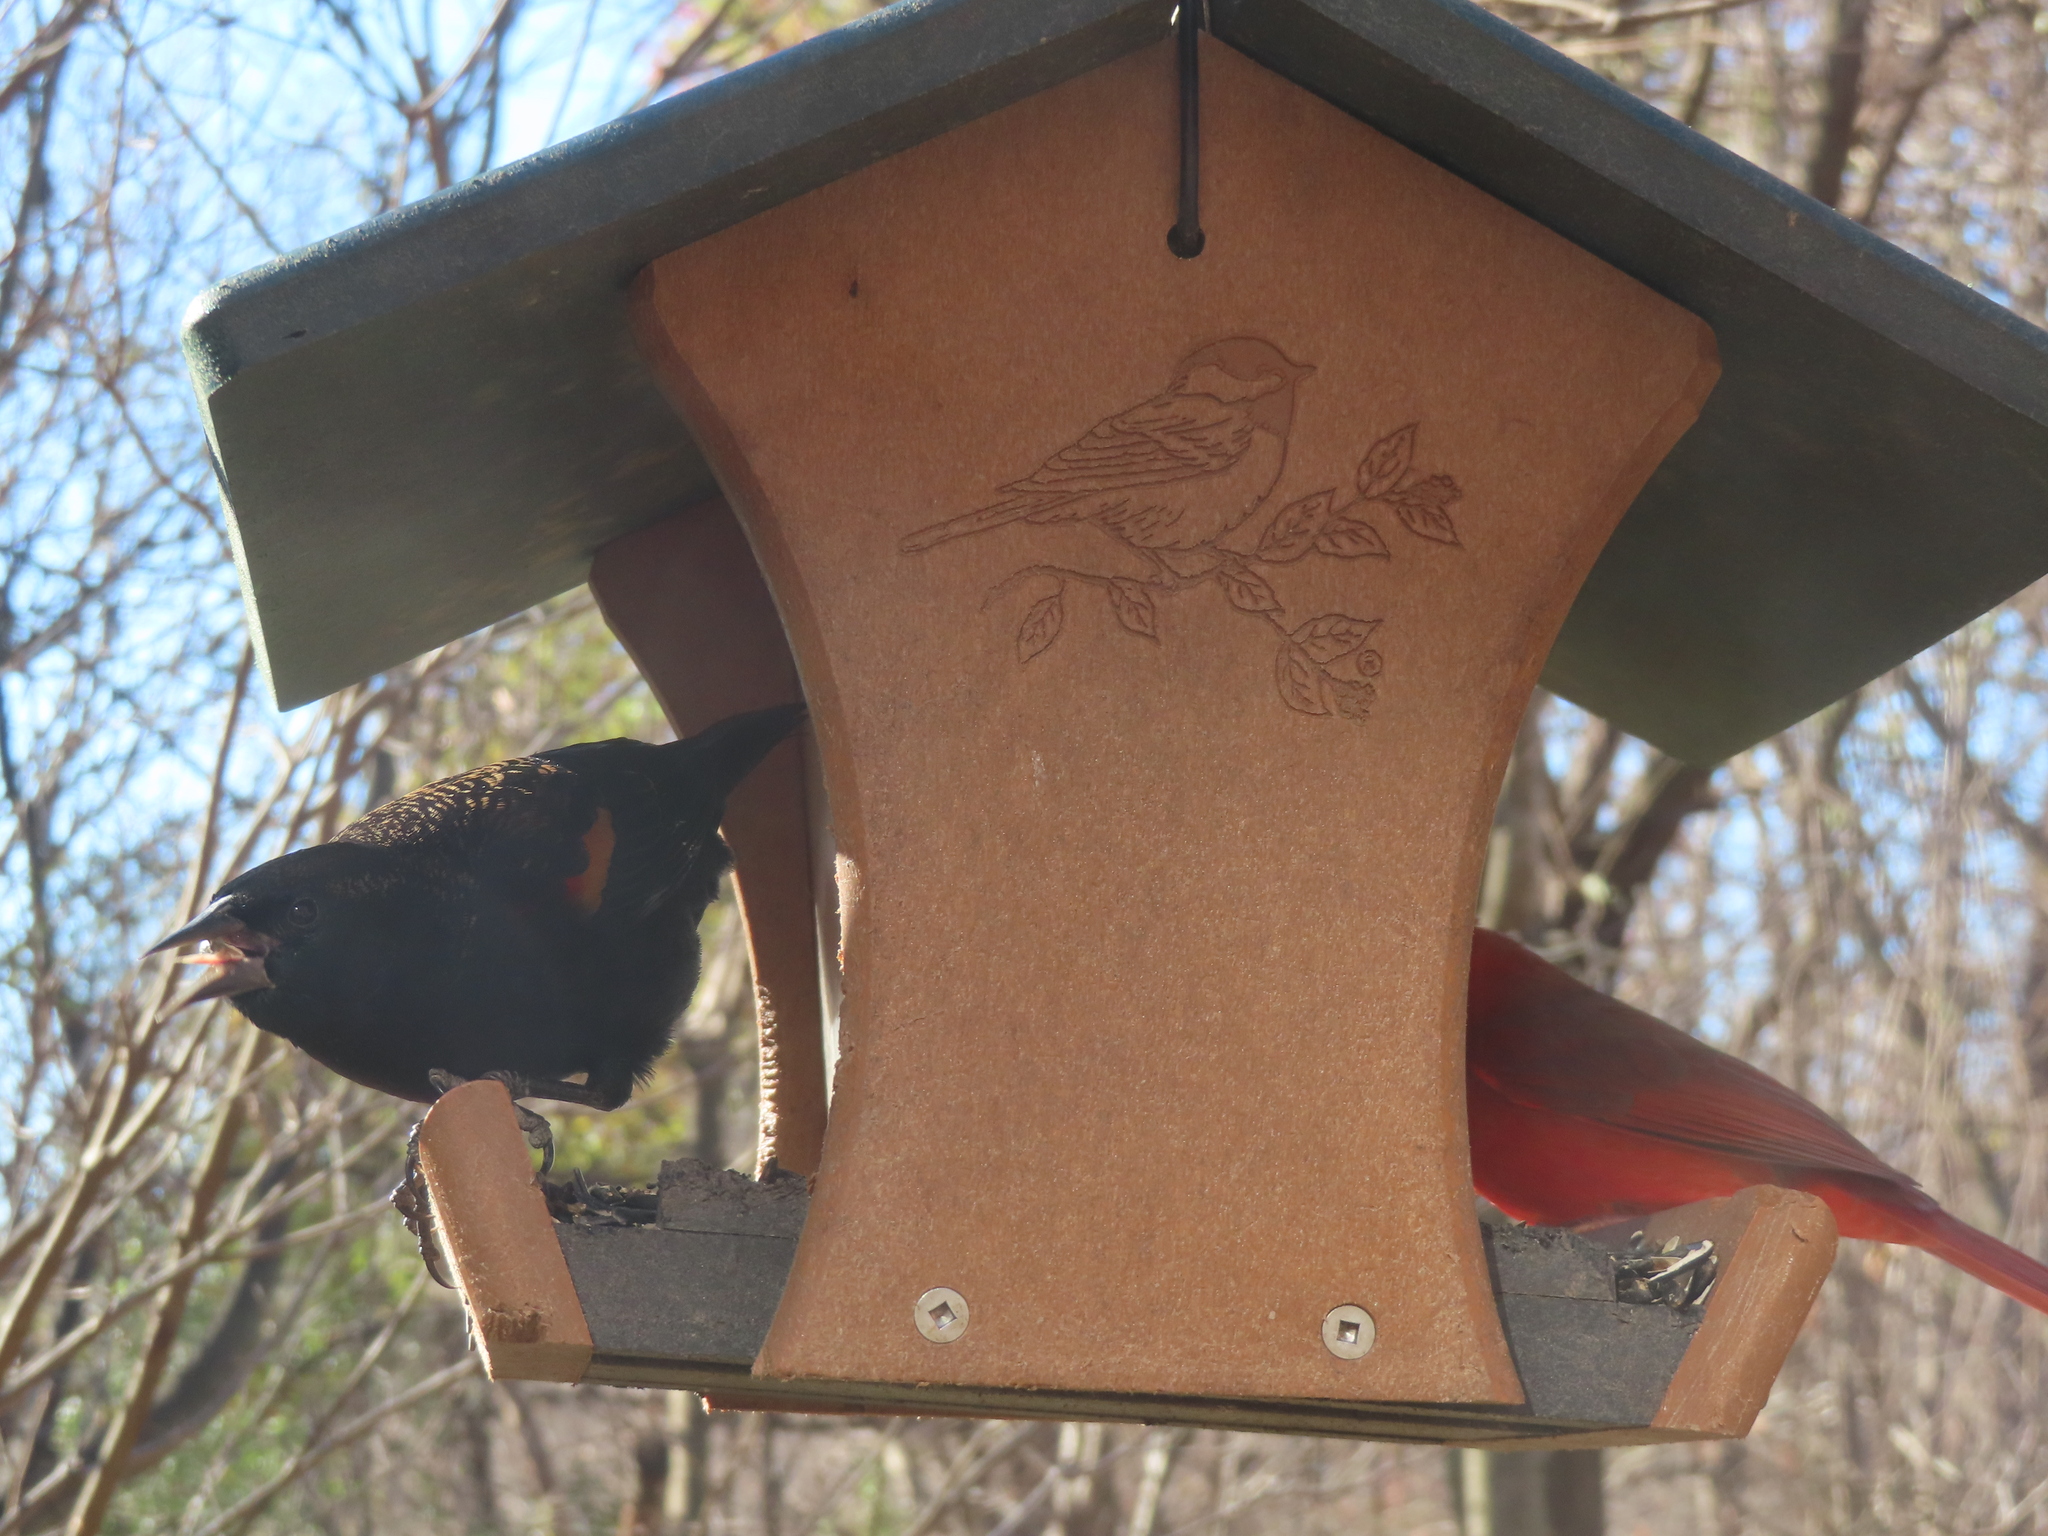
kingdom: Animalia
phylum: Chordata
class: Aves
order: Passeriformes
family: Cardinalidae
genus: Cardinalis
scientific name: Cardinalis cardinalis
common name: Northern cardinal
